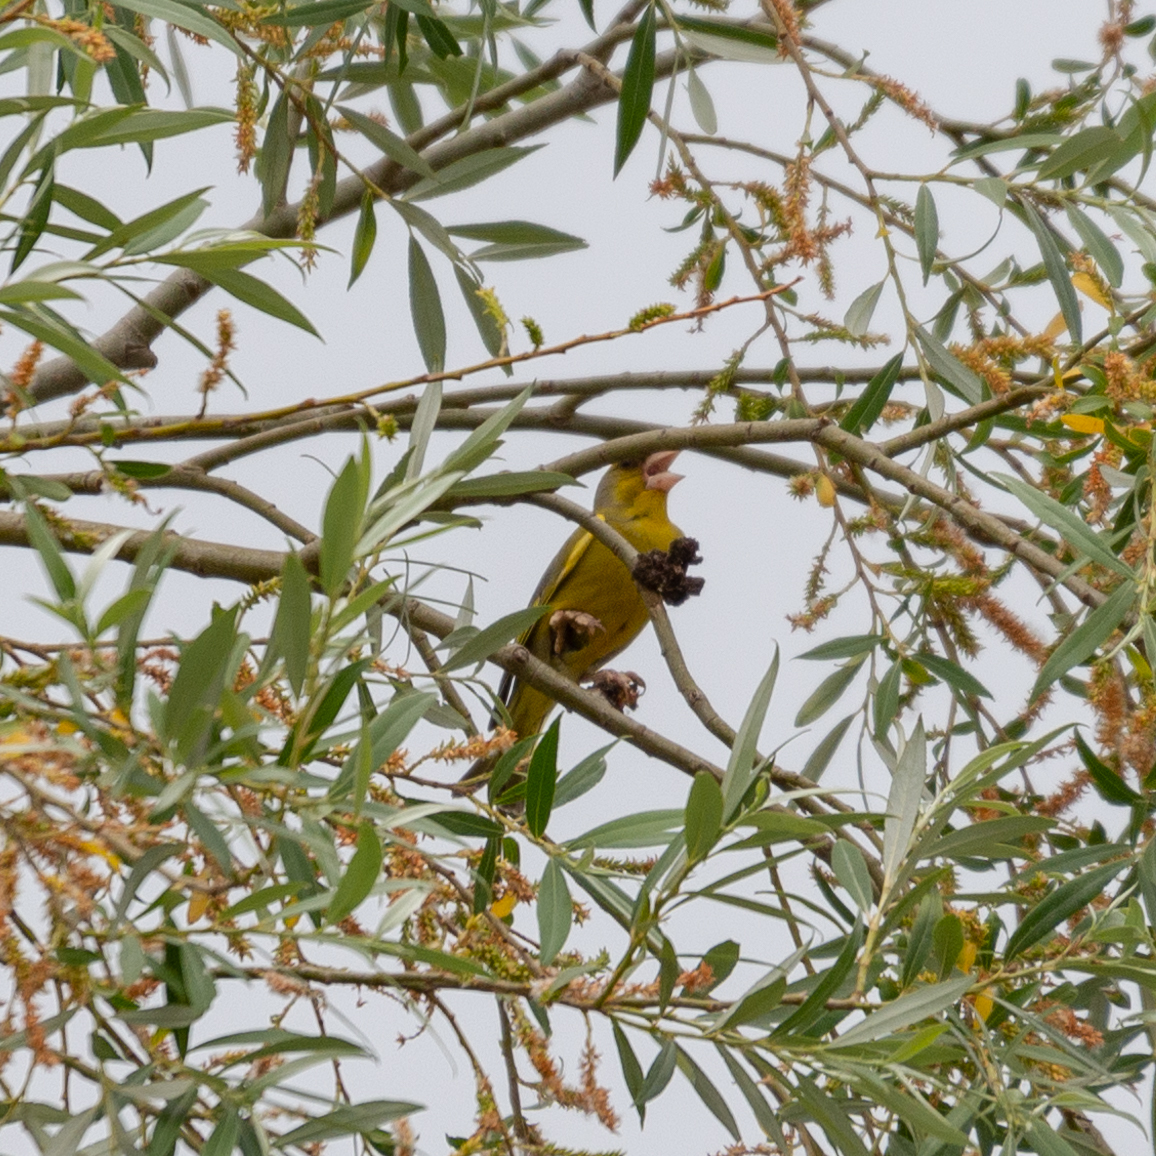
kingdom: Plantae
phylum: Tracheophyta
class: Liliopsida
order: Poales
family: Poaceae
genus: Chloris
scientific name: Chloris chloris
